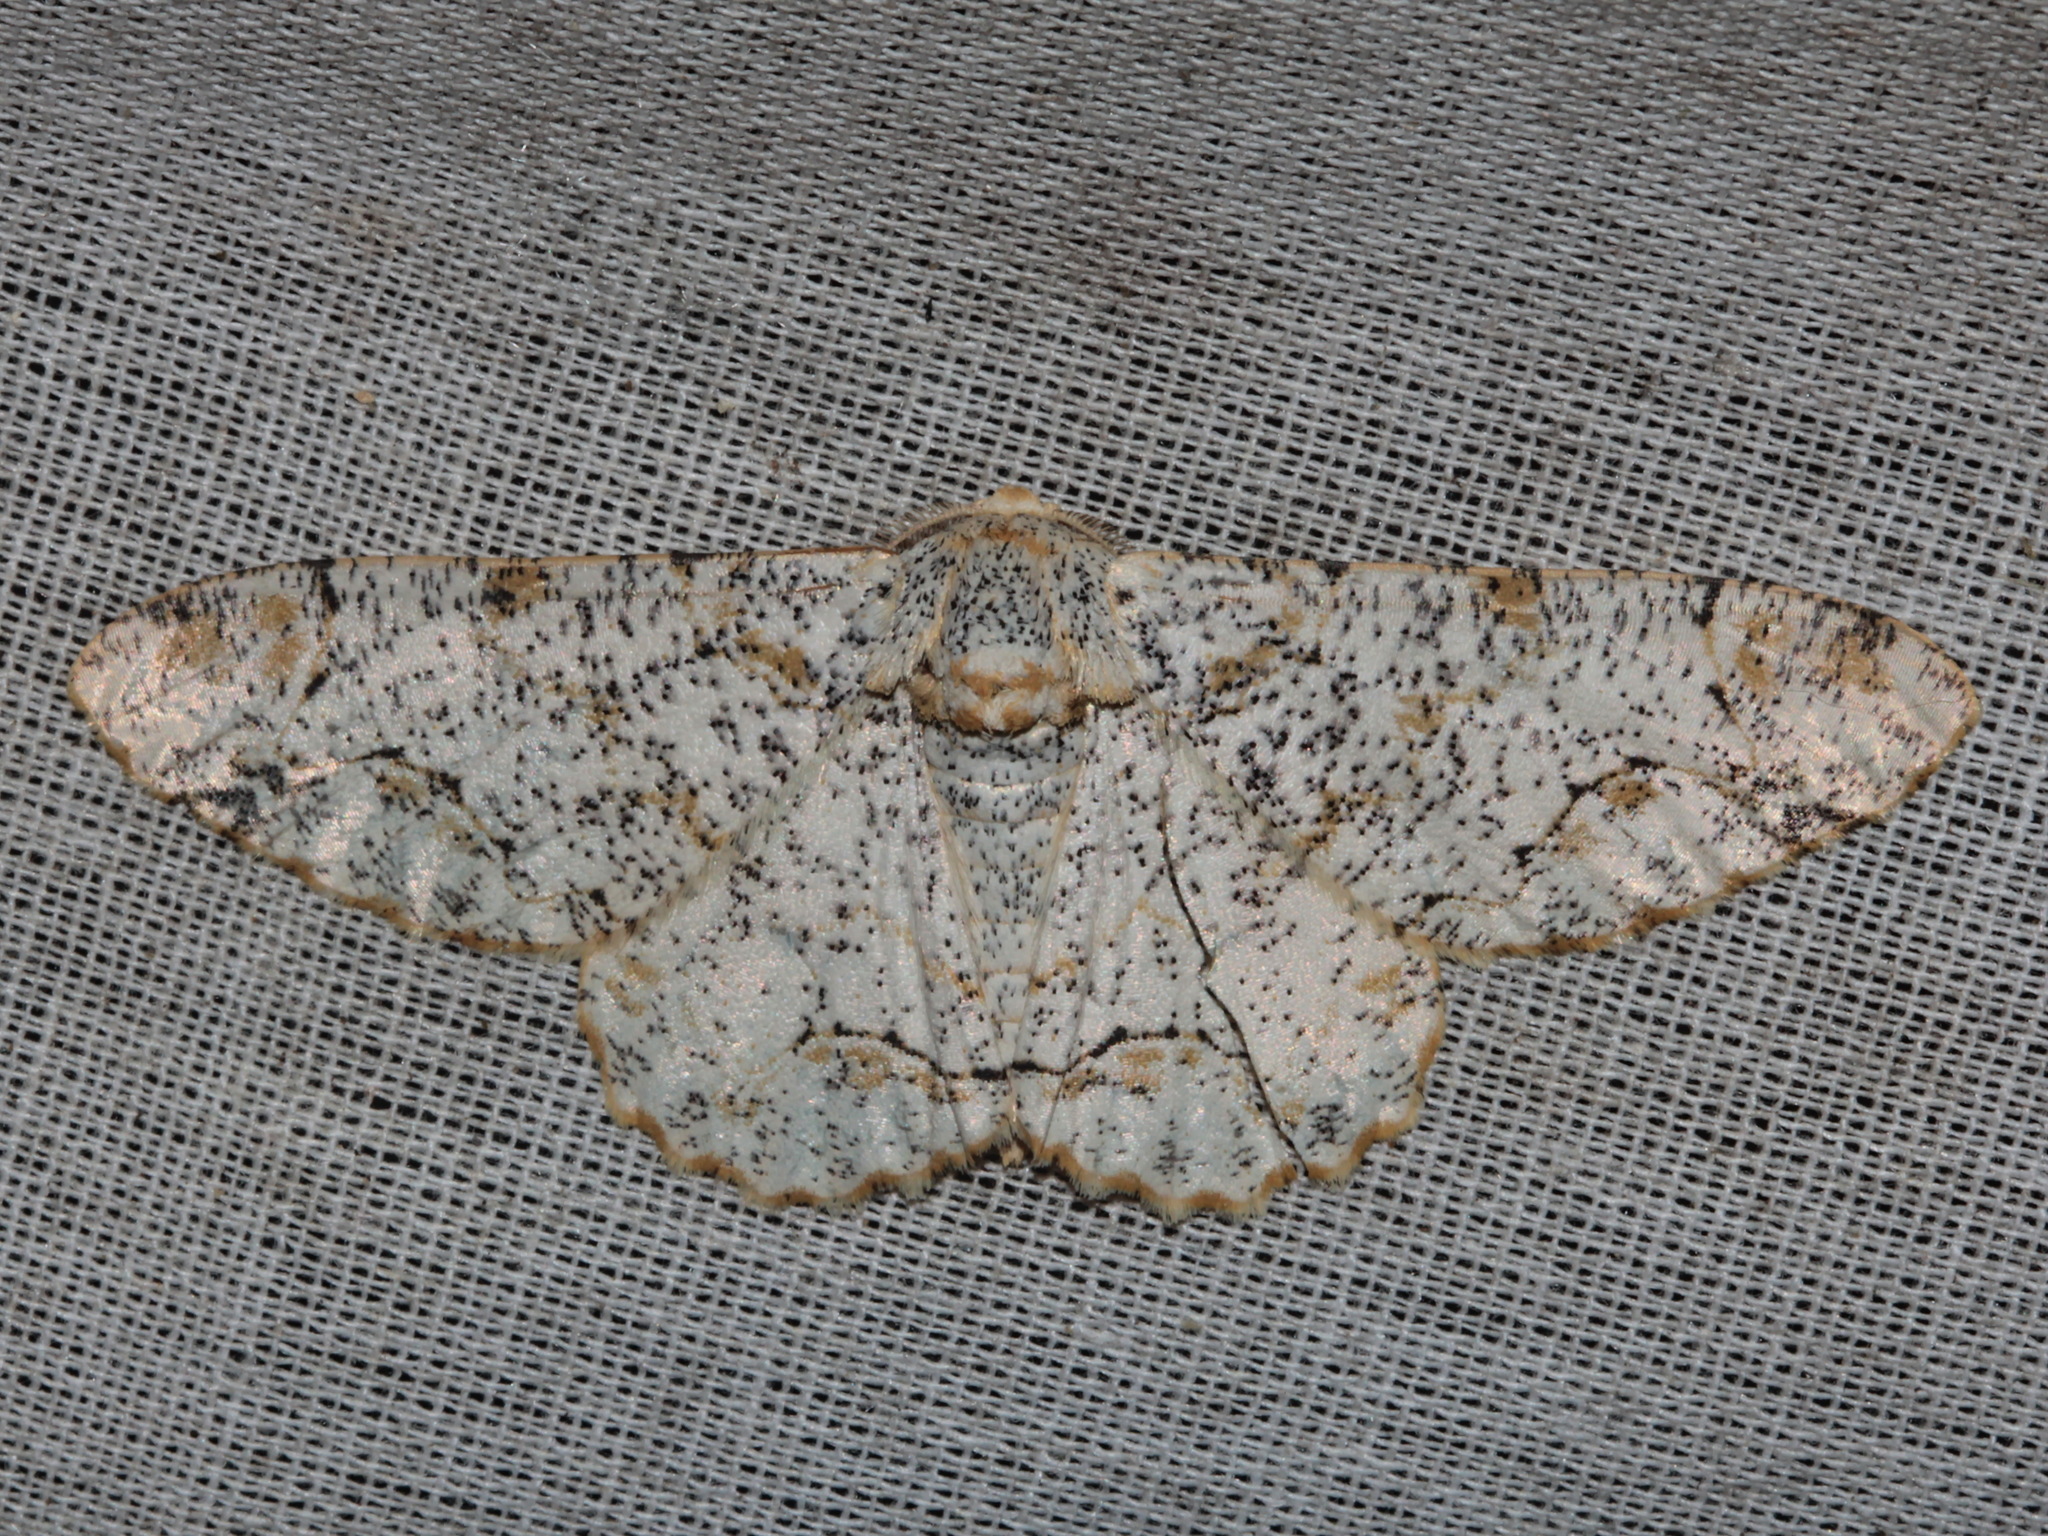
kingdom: Animalia
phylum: Arthropoda
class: Insecta
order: Lepidoptera
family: Geometridae
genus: Biston
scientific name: Biston suppressaria
